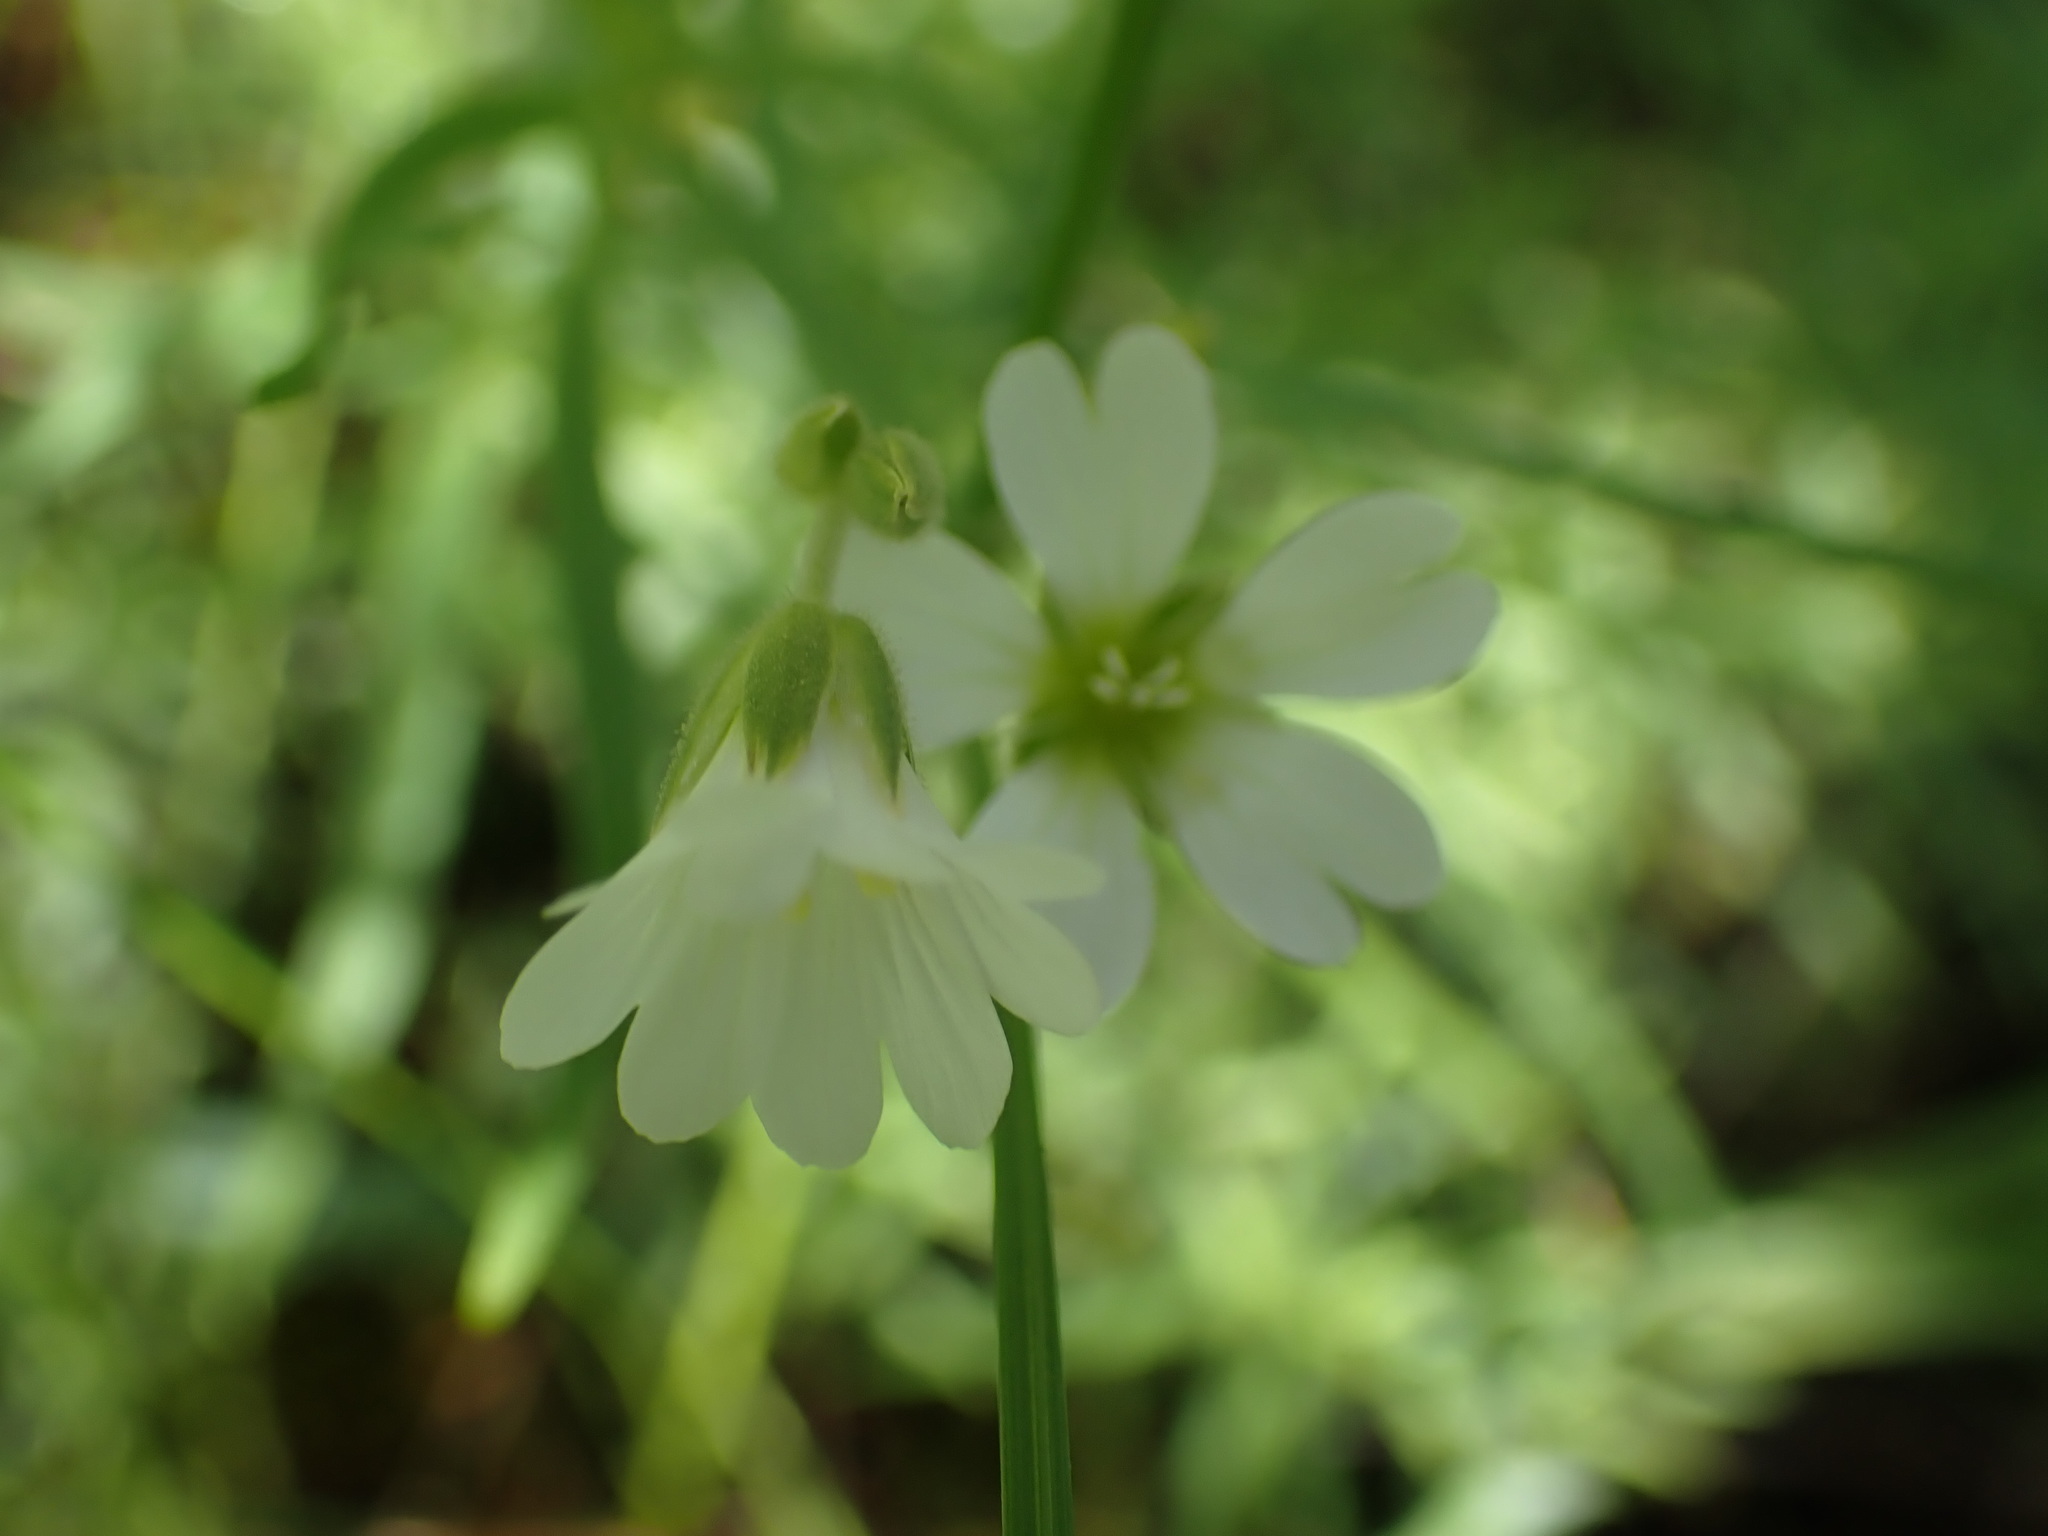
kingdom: Plantae
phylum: Tracheophyta
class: Magnoliopsida
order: Caryophyllales
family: Caryophyllaceae
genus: Cerastium
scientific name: Cerastium arvense
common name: Field mouse-ear
